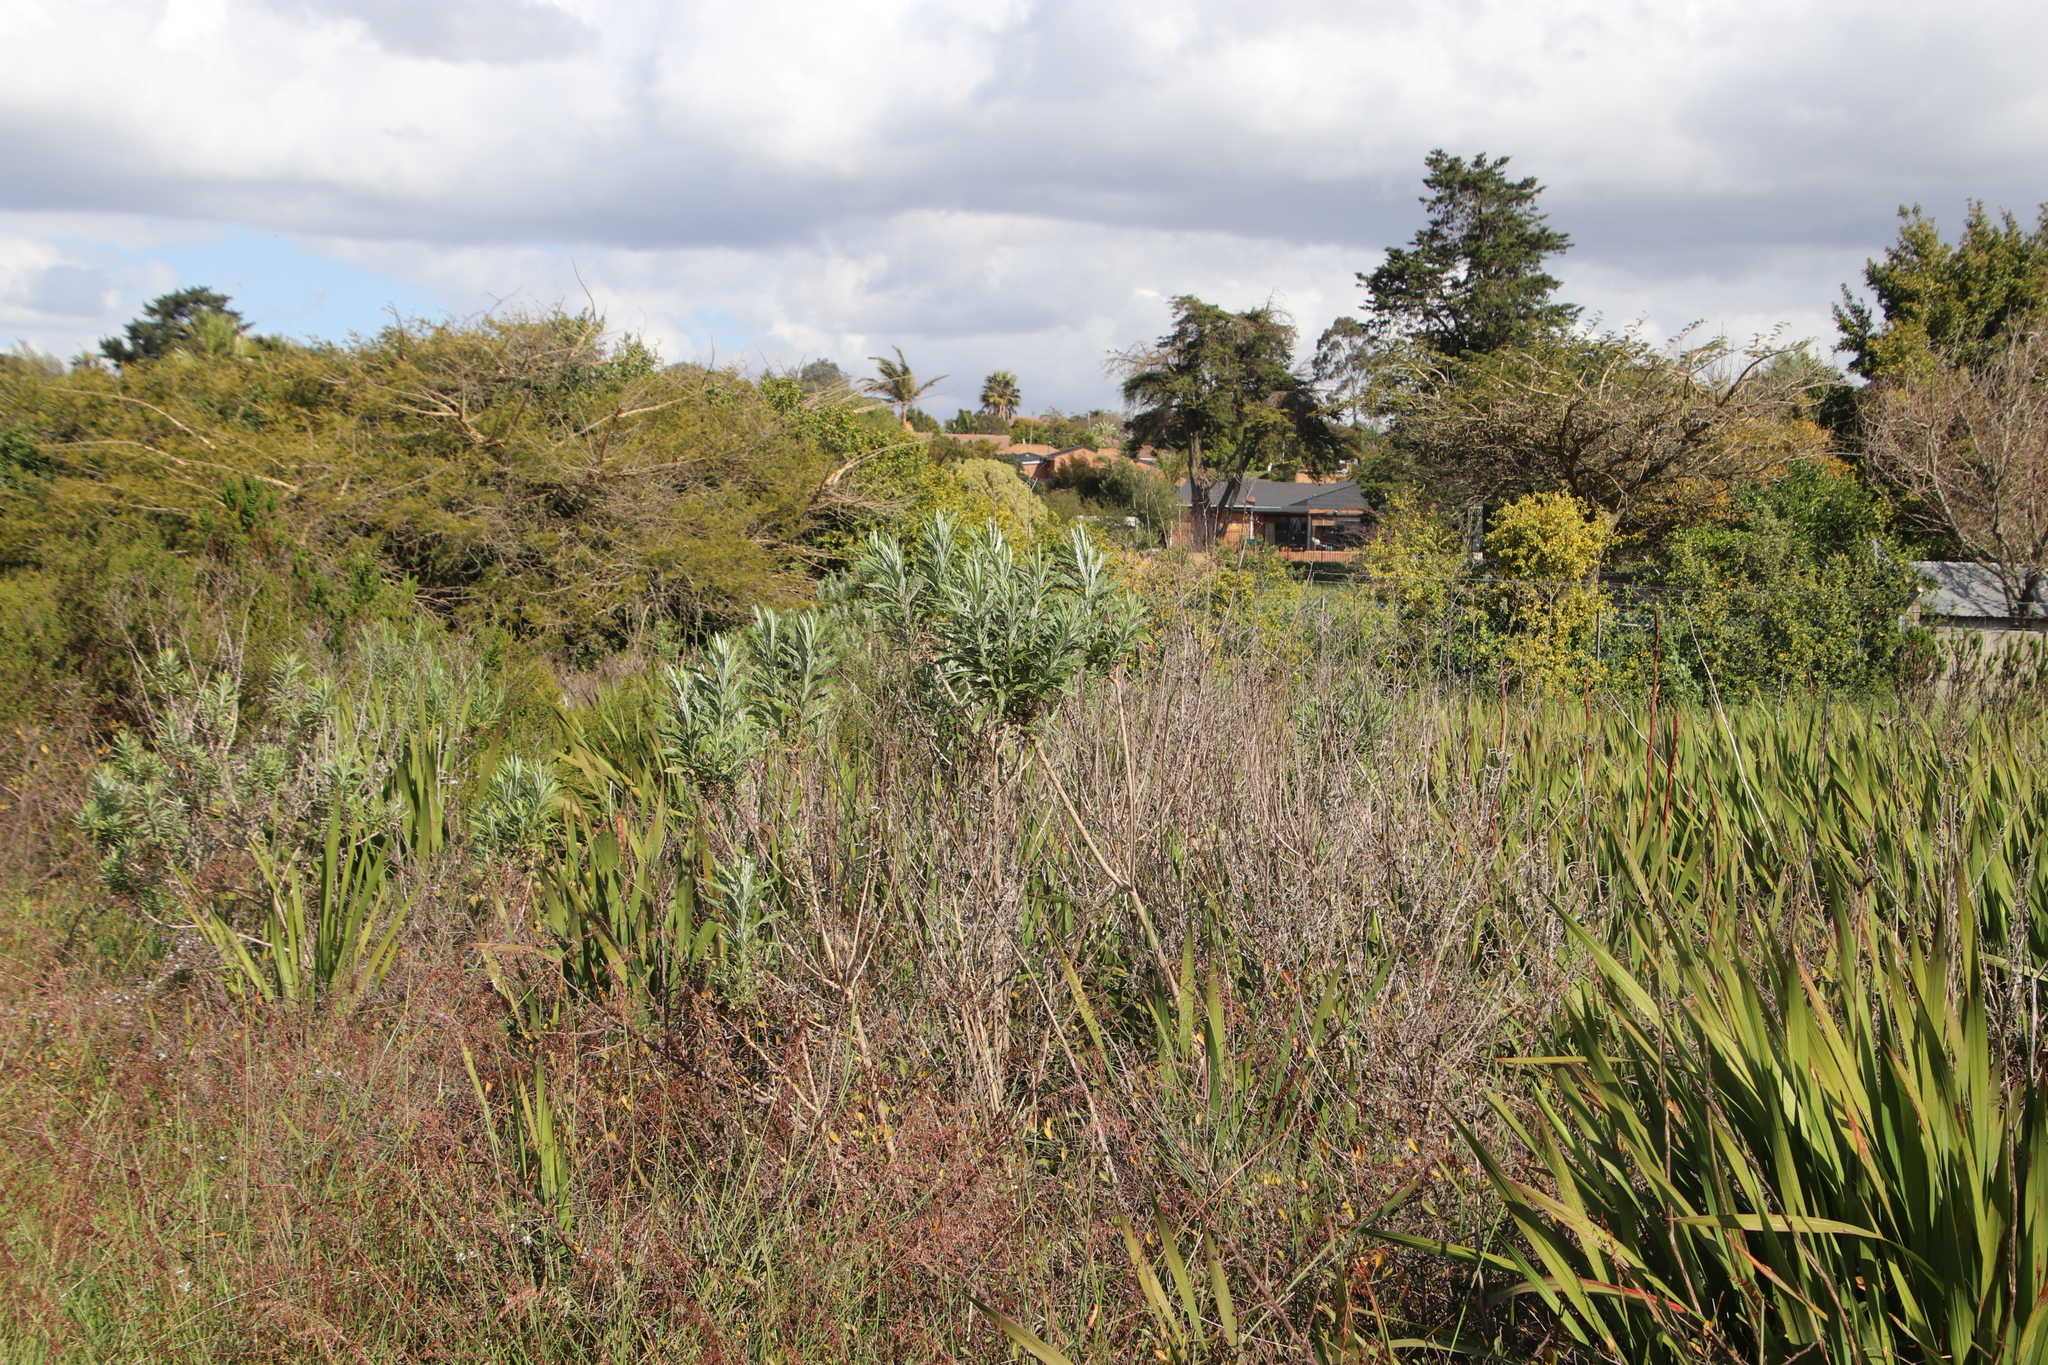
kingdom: Plantae
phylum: Tracheophyta
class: Magnoliopsida
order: Asterales
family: Asteraceae
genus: Senecio
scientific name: Senecio pterophorus
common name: Shoddy ragwort
